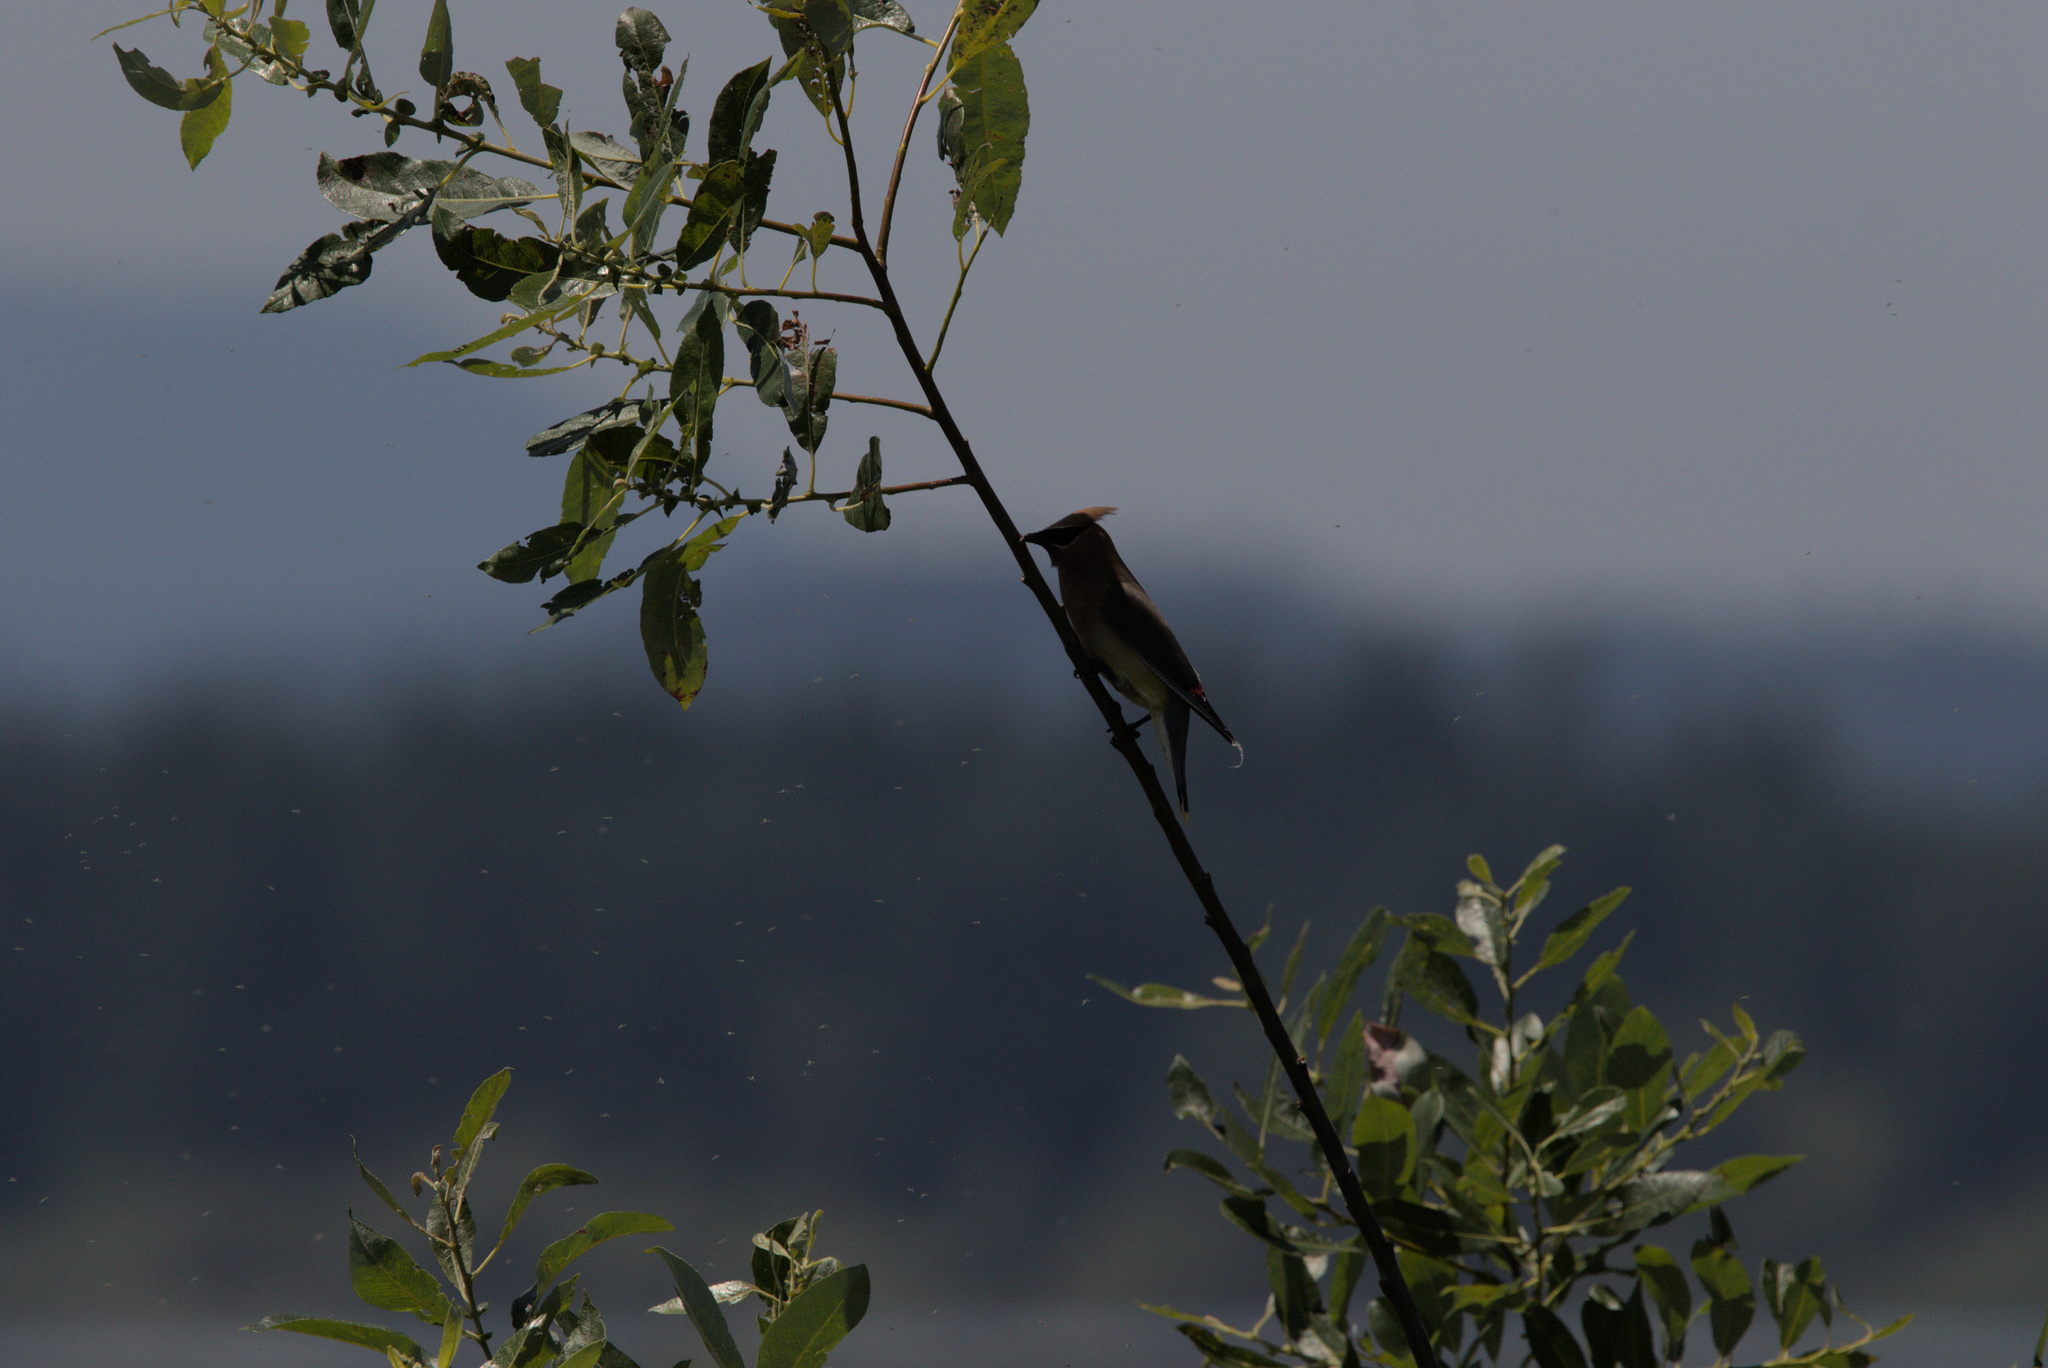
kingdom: Animalia
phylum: Chordata
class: Aves
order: Passeriformes
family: Bombycillidae
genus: Bombycilla
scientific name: Bombycilla cedrorum
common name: Cedar waxwing
